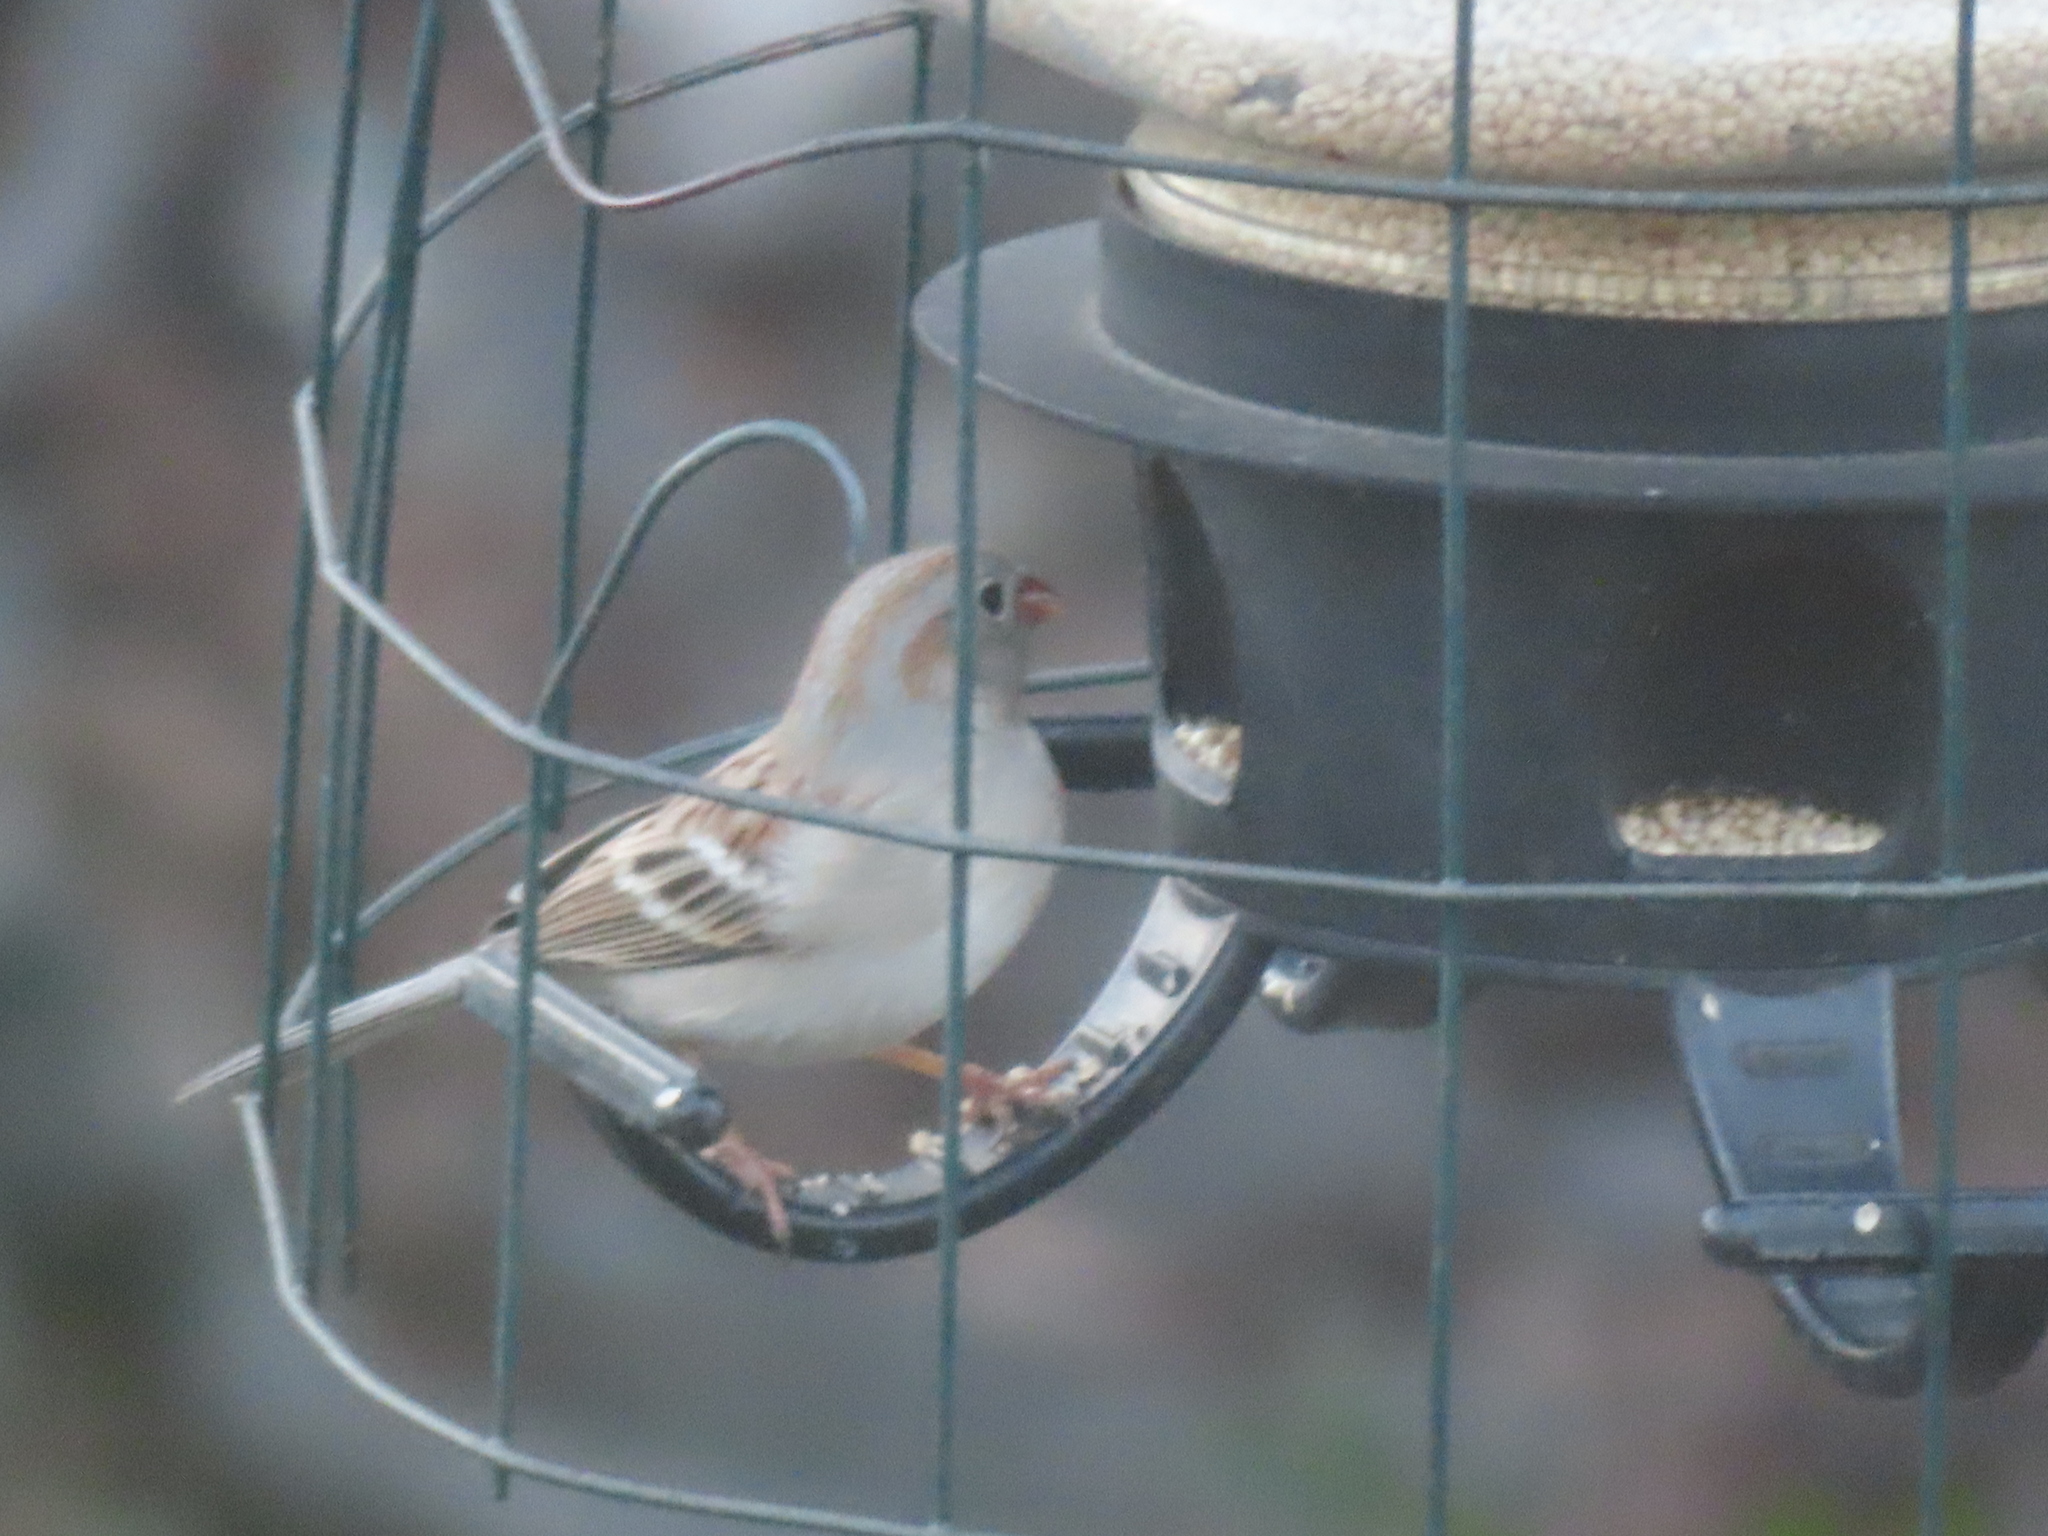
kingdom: Animalia
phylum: Chordata
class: Aves
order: Passeriformes
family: Passerellidae
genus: Spizella
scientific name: Spizella pusilla
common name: Field sparrow
